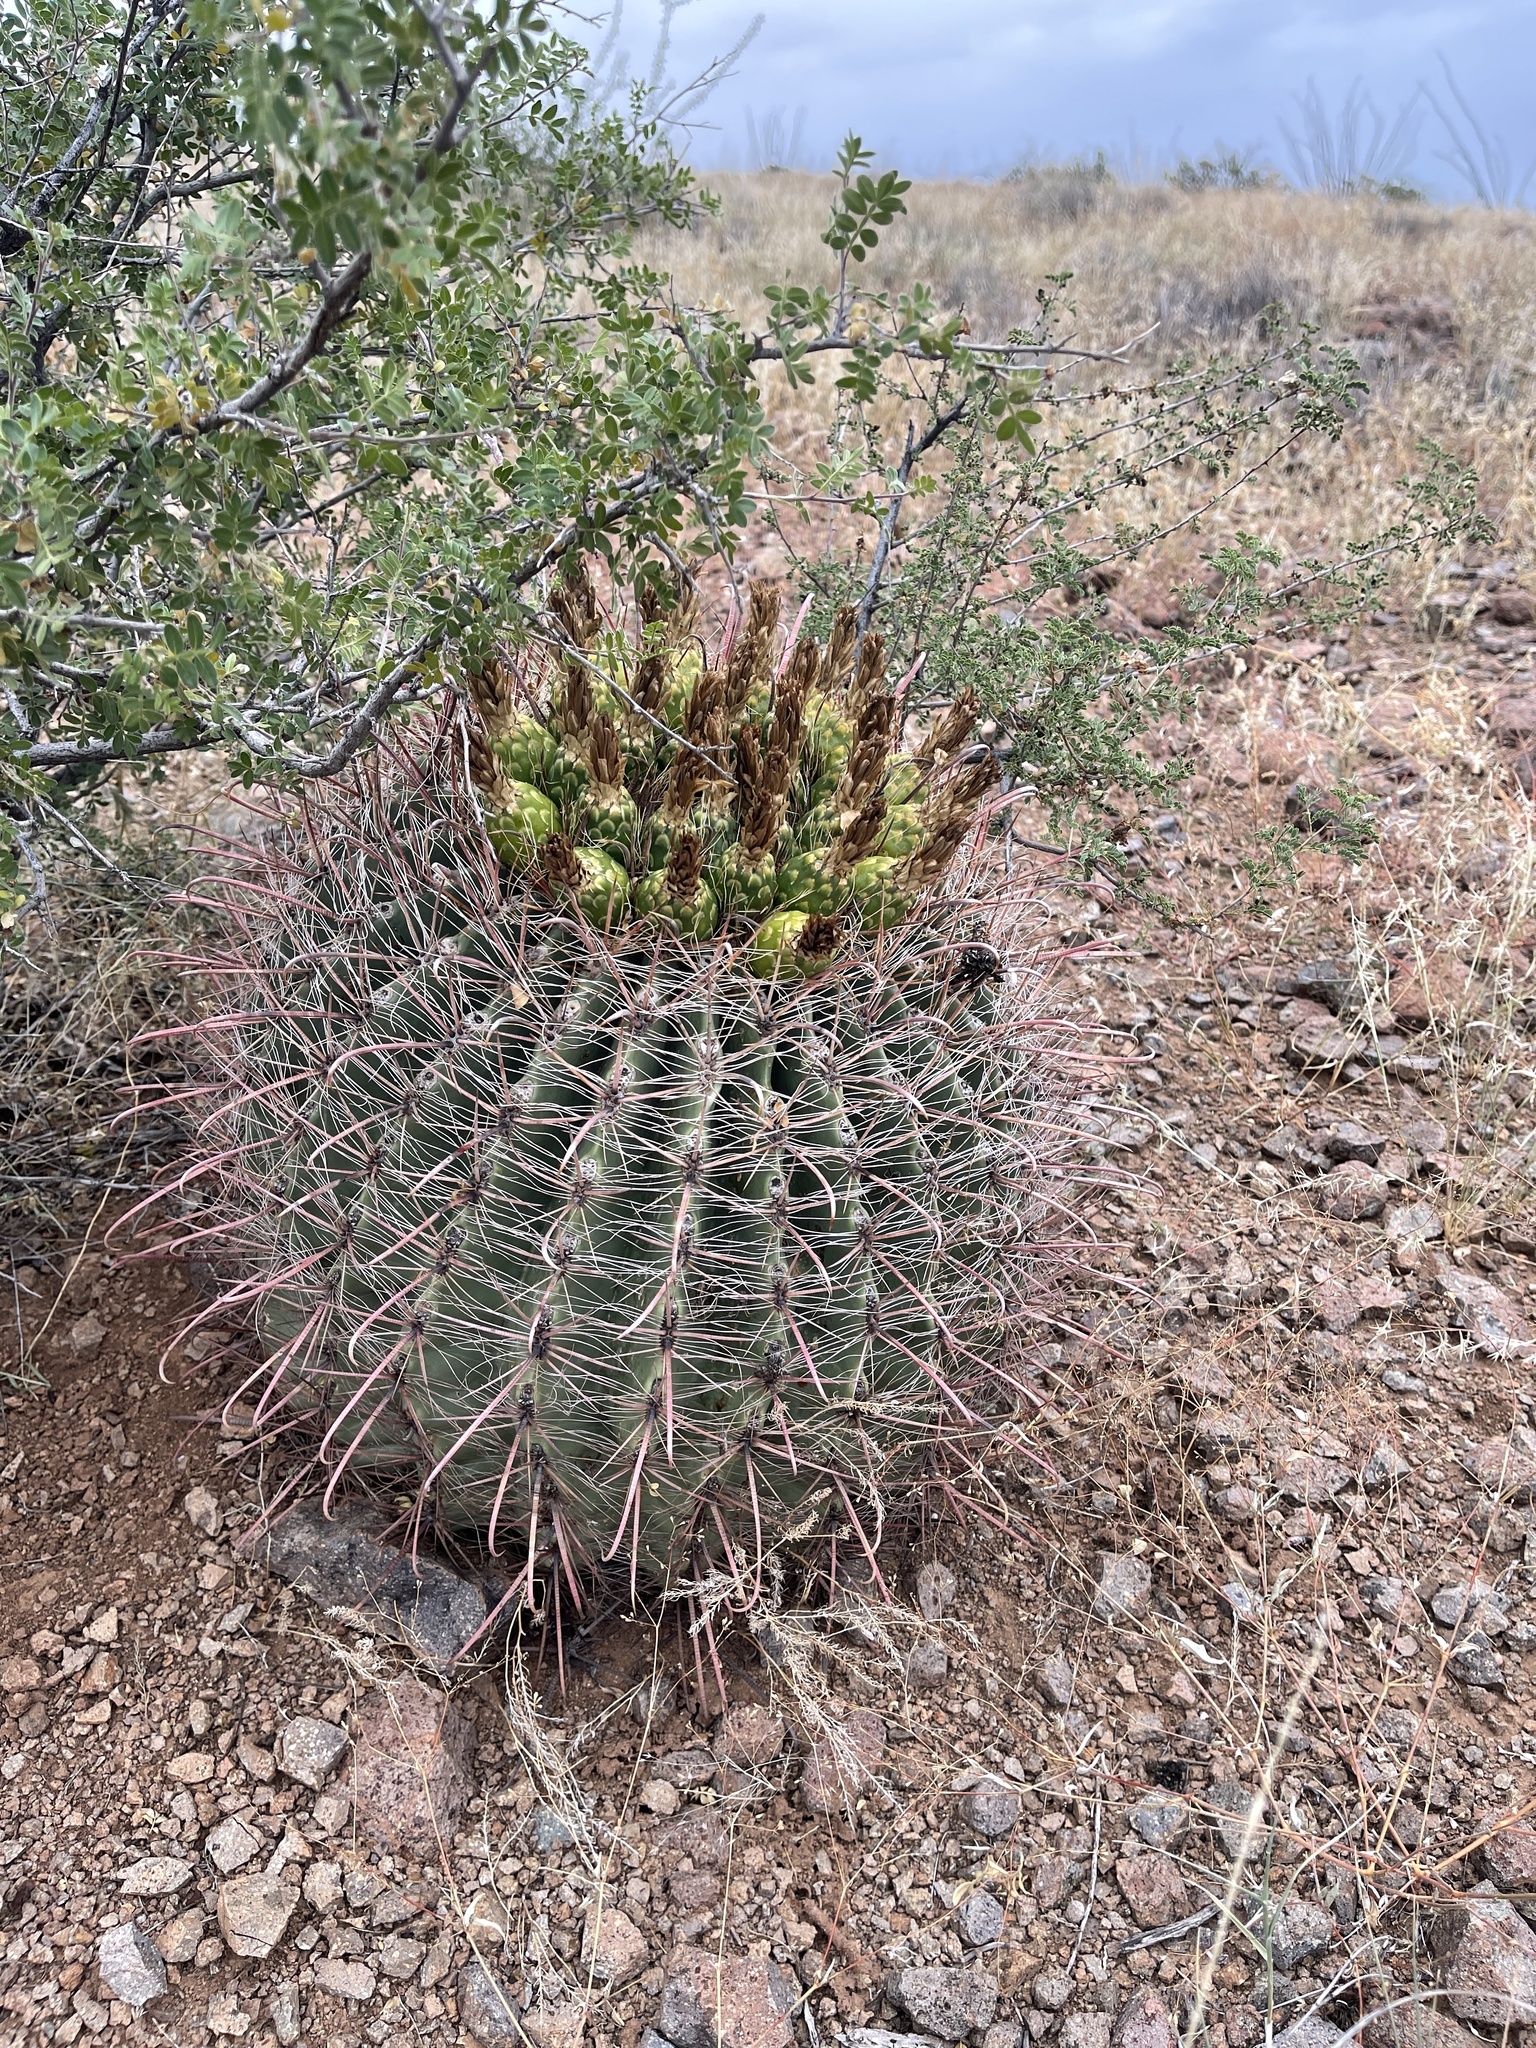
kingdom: Plantae
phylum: Tracheophyta
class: Magnoliopsida
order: Caryophyllales
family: Cactaceae
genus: Ferocactus
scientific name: Ferocactus wislizeni
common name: Candy barrel cactus
